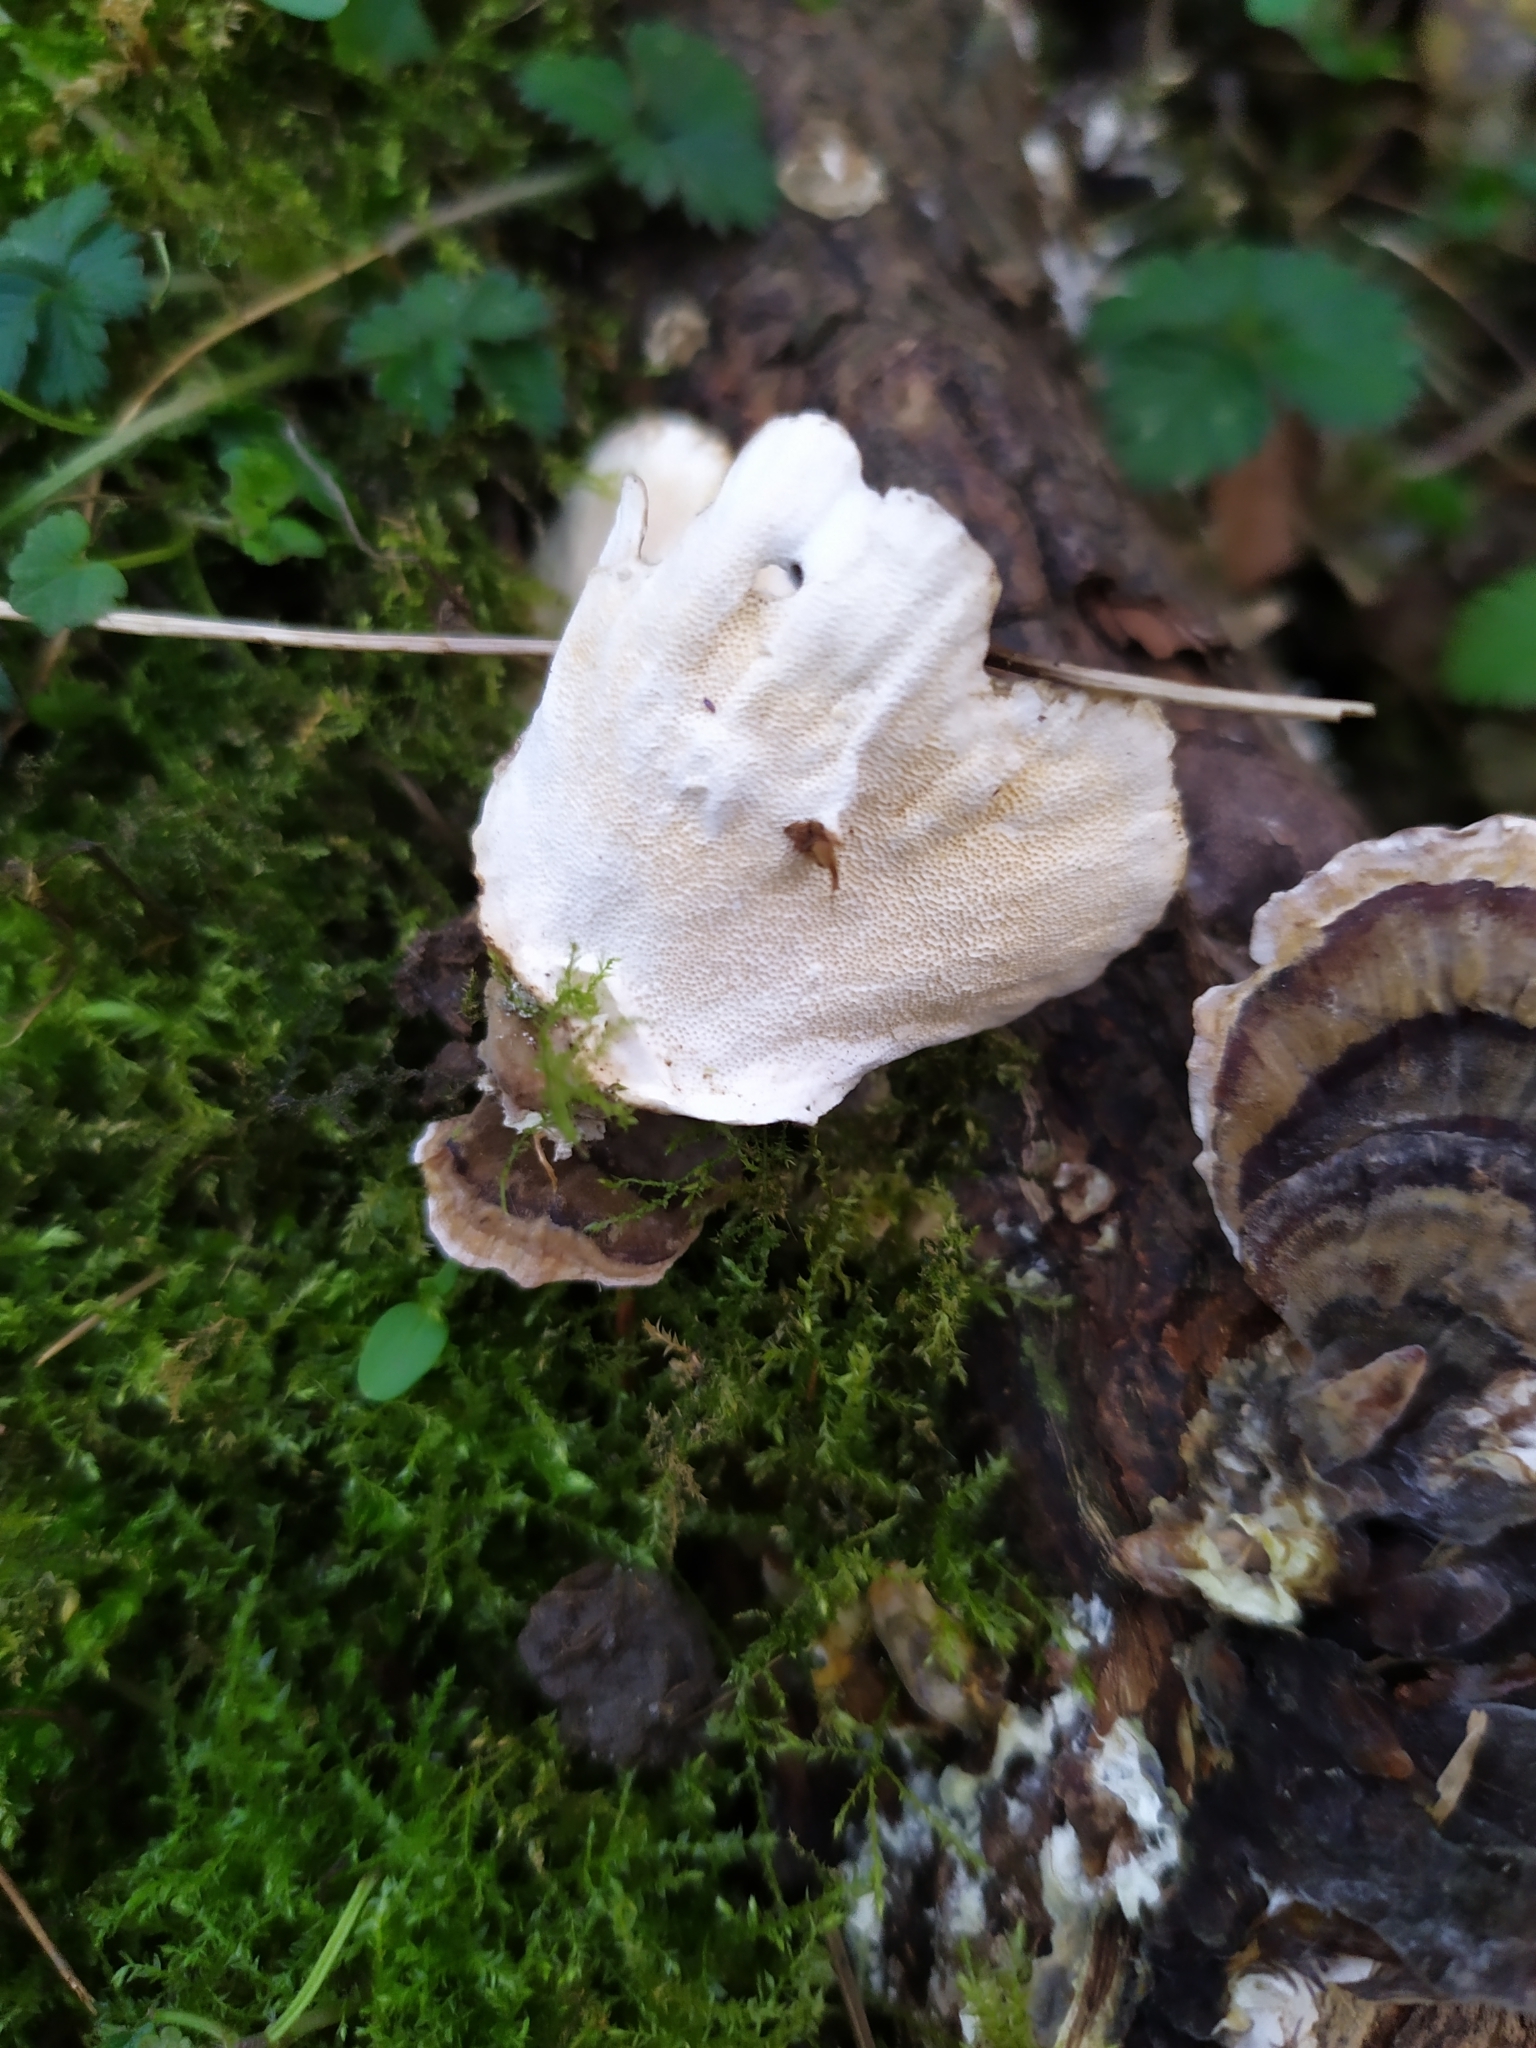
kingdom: Fungi
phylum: Basidiomycota
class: Agaricomycetes
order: Polyporales
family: Polyporaceae
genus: Trametes
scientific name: Trametes versicolor
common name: Turkeytail
